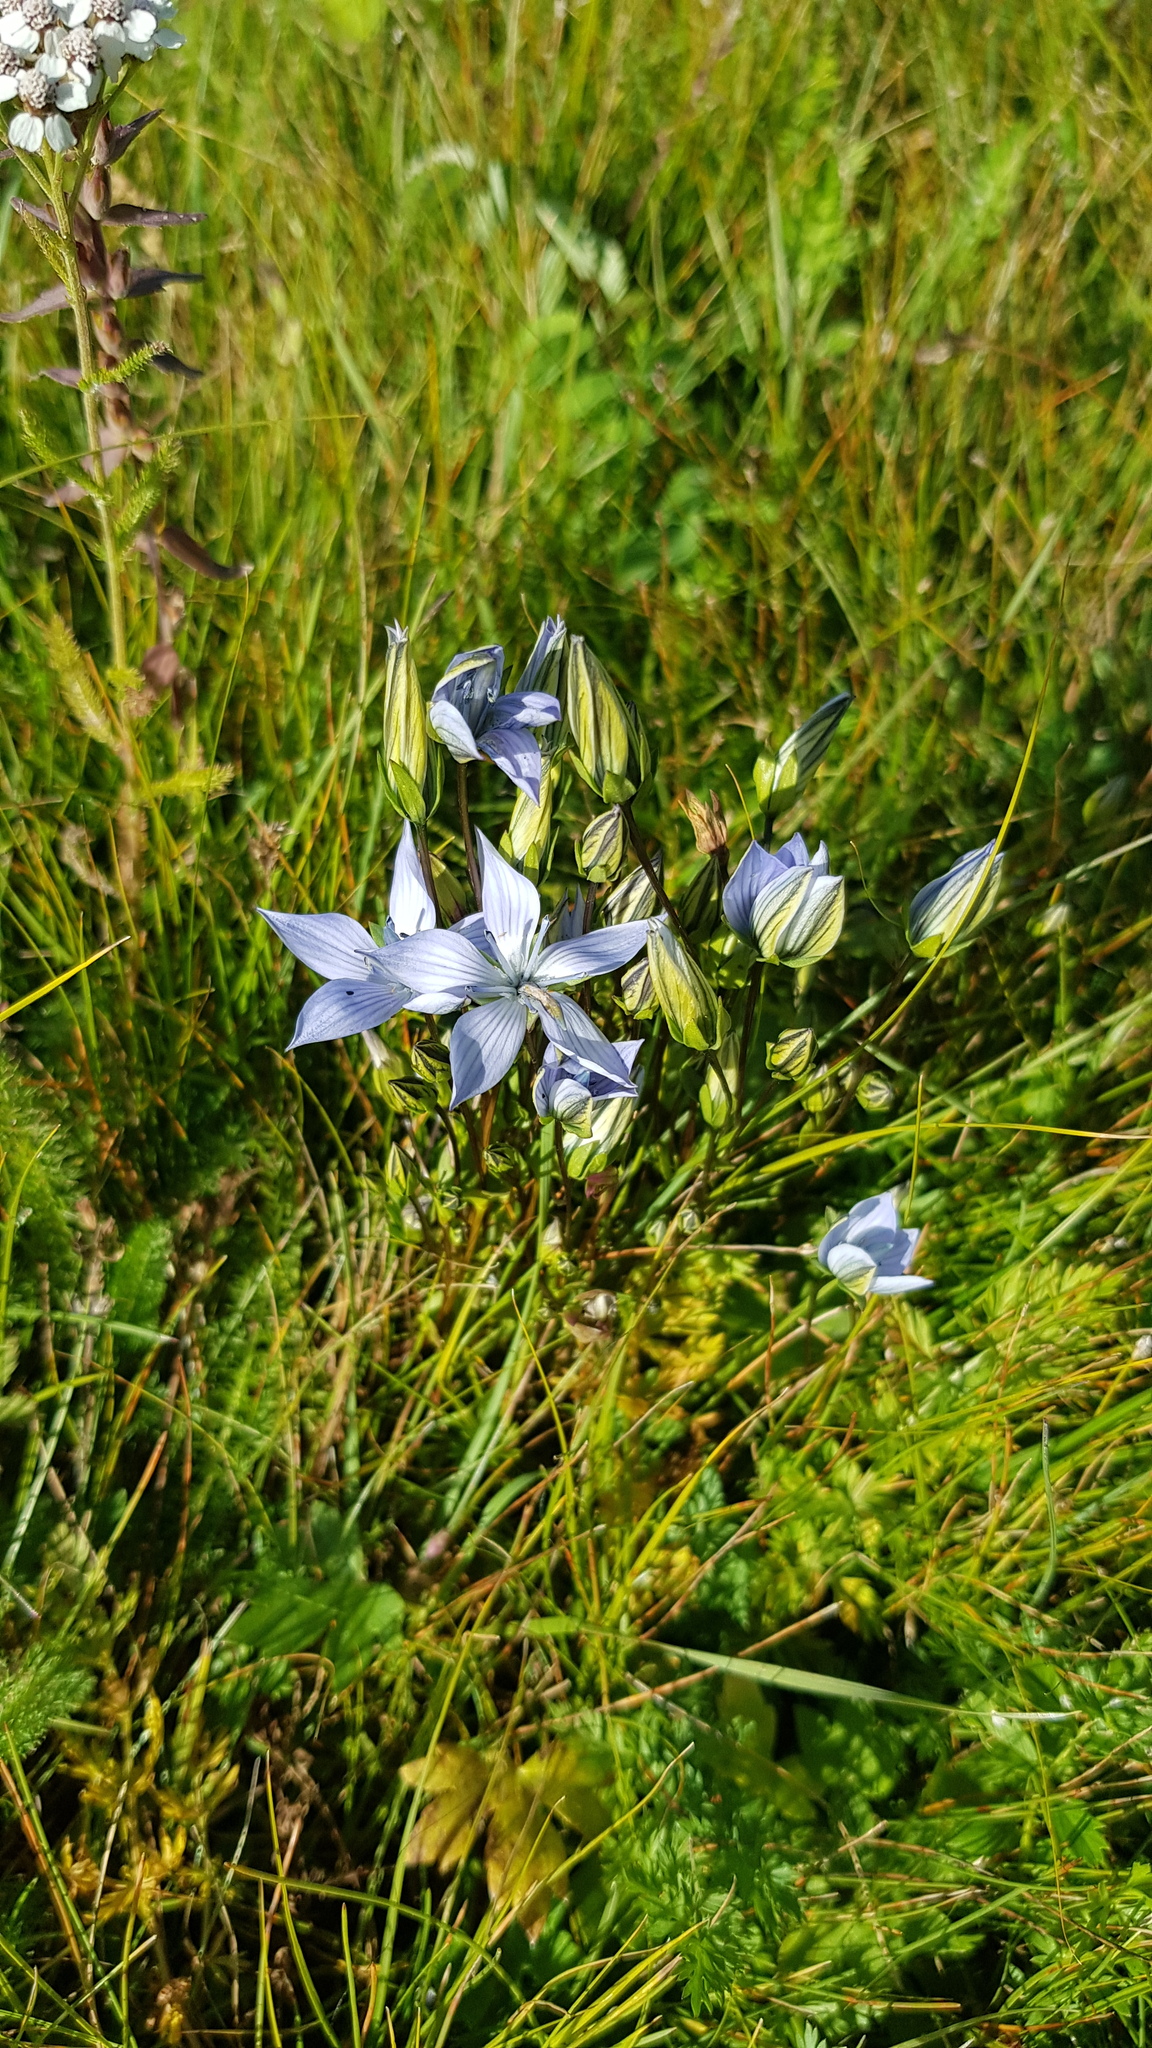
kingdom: Plantae
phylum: Tracheophyta
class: Magnoliopsida
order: Gentianales
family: Gentianaceae
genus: Lomatogonium
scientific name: Lomatogonium carinthiacum
